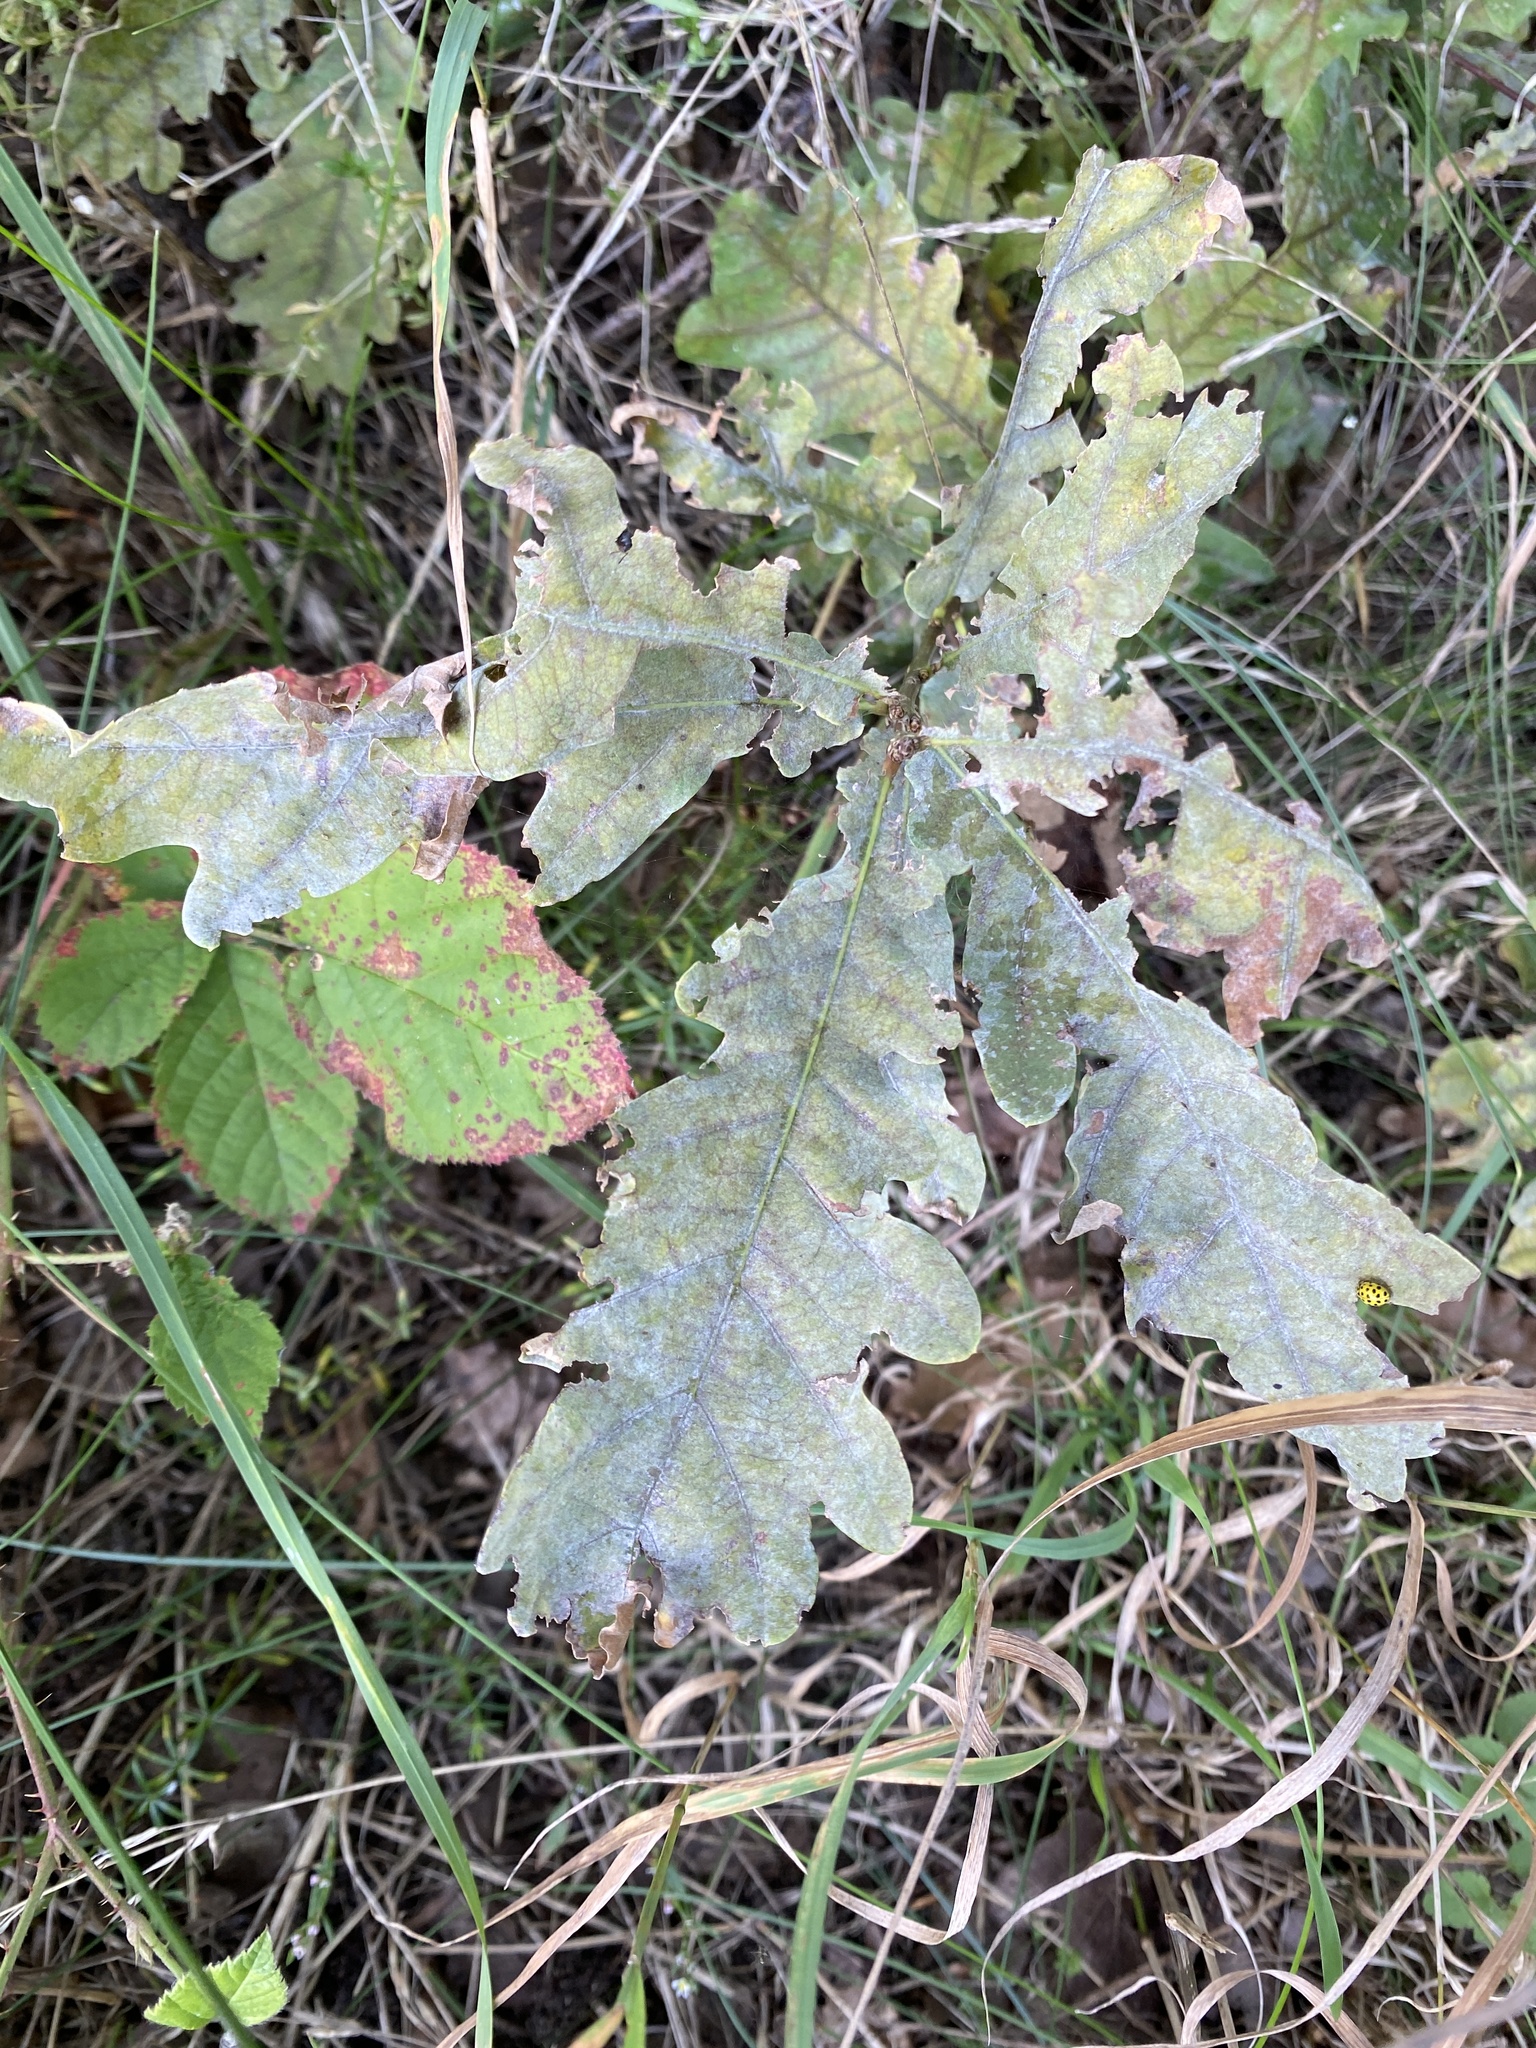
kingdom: Fungi
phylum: Ascomycota
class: Leotiomycetes
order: Helotiales
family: Erysiphaceae
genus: Erysiphe
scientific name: Erysiphe
